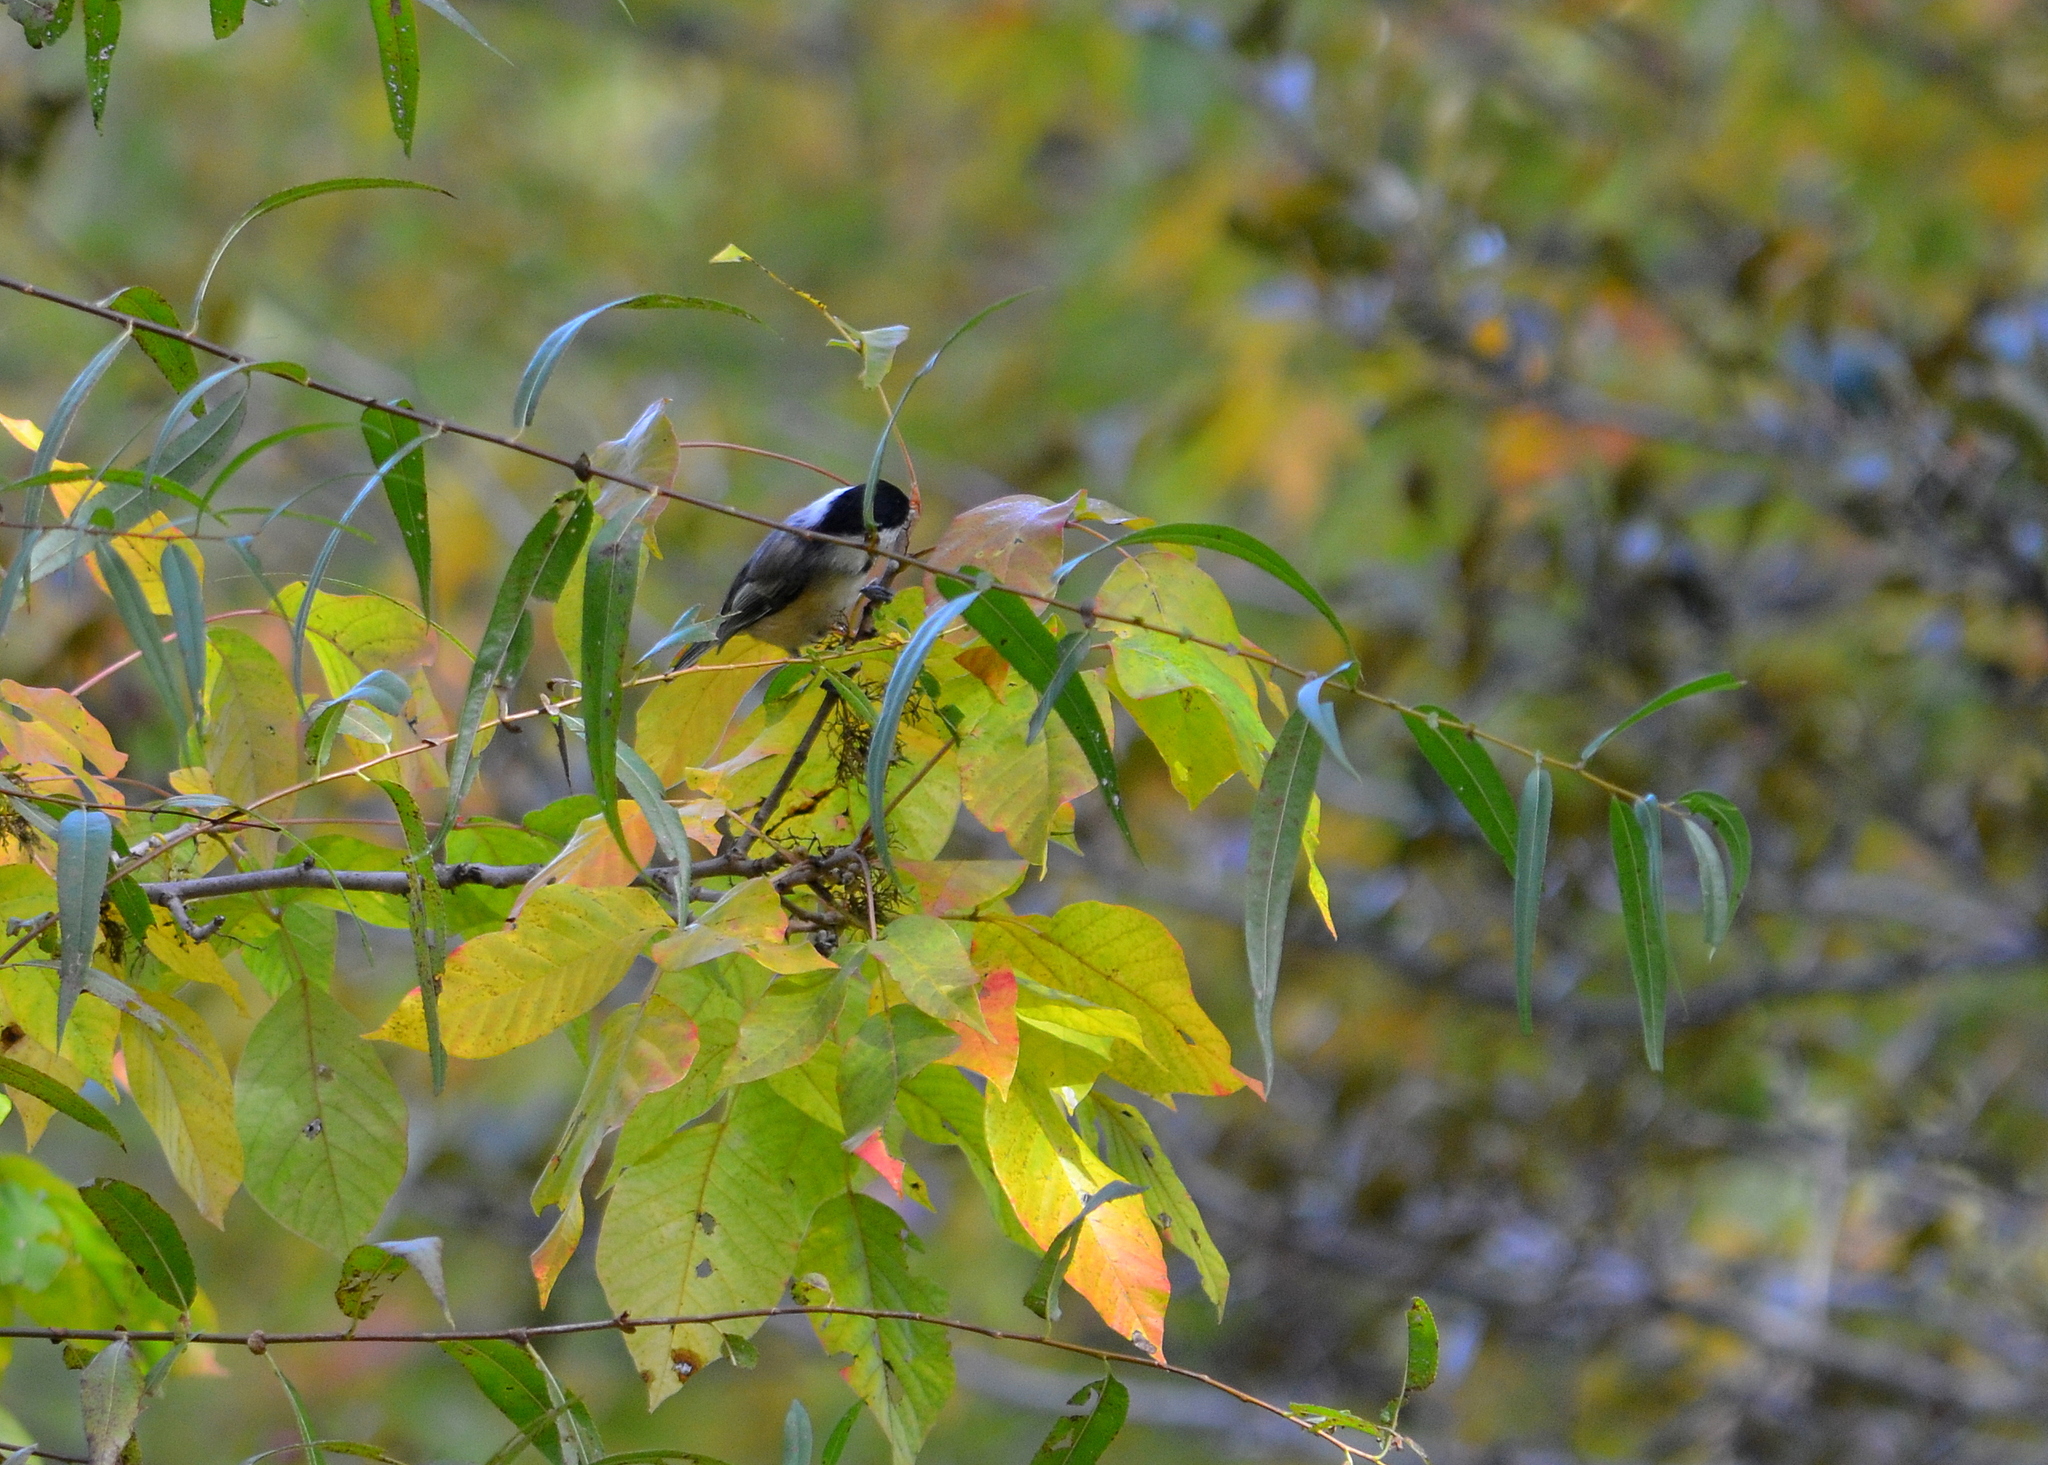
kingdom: Animalia
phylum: Chordata
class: Aves
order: Passeriformes
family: Paridae
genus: Poecile
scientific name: Poecile atricapillus
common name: Black-capped chickadee
